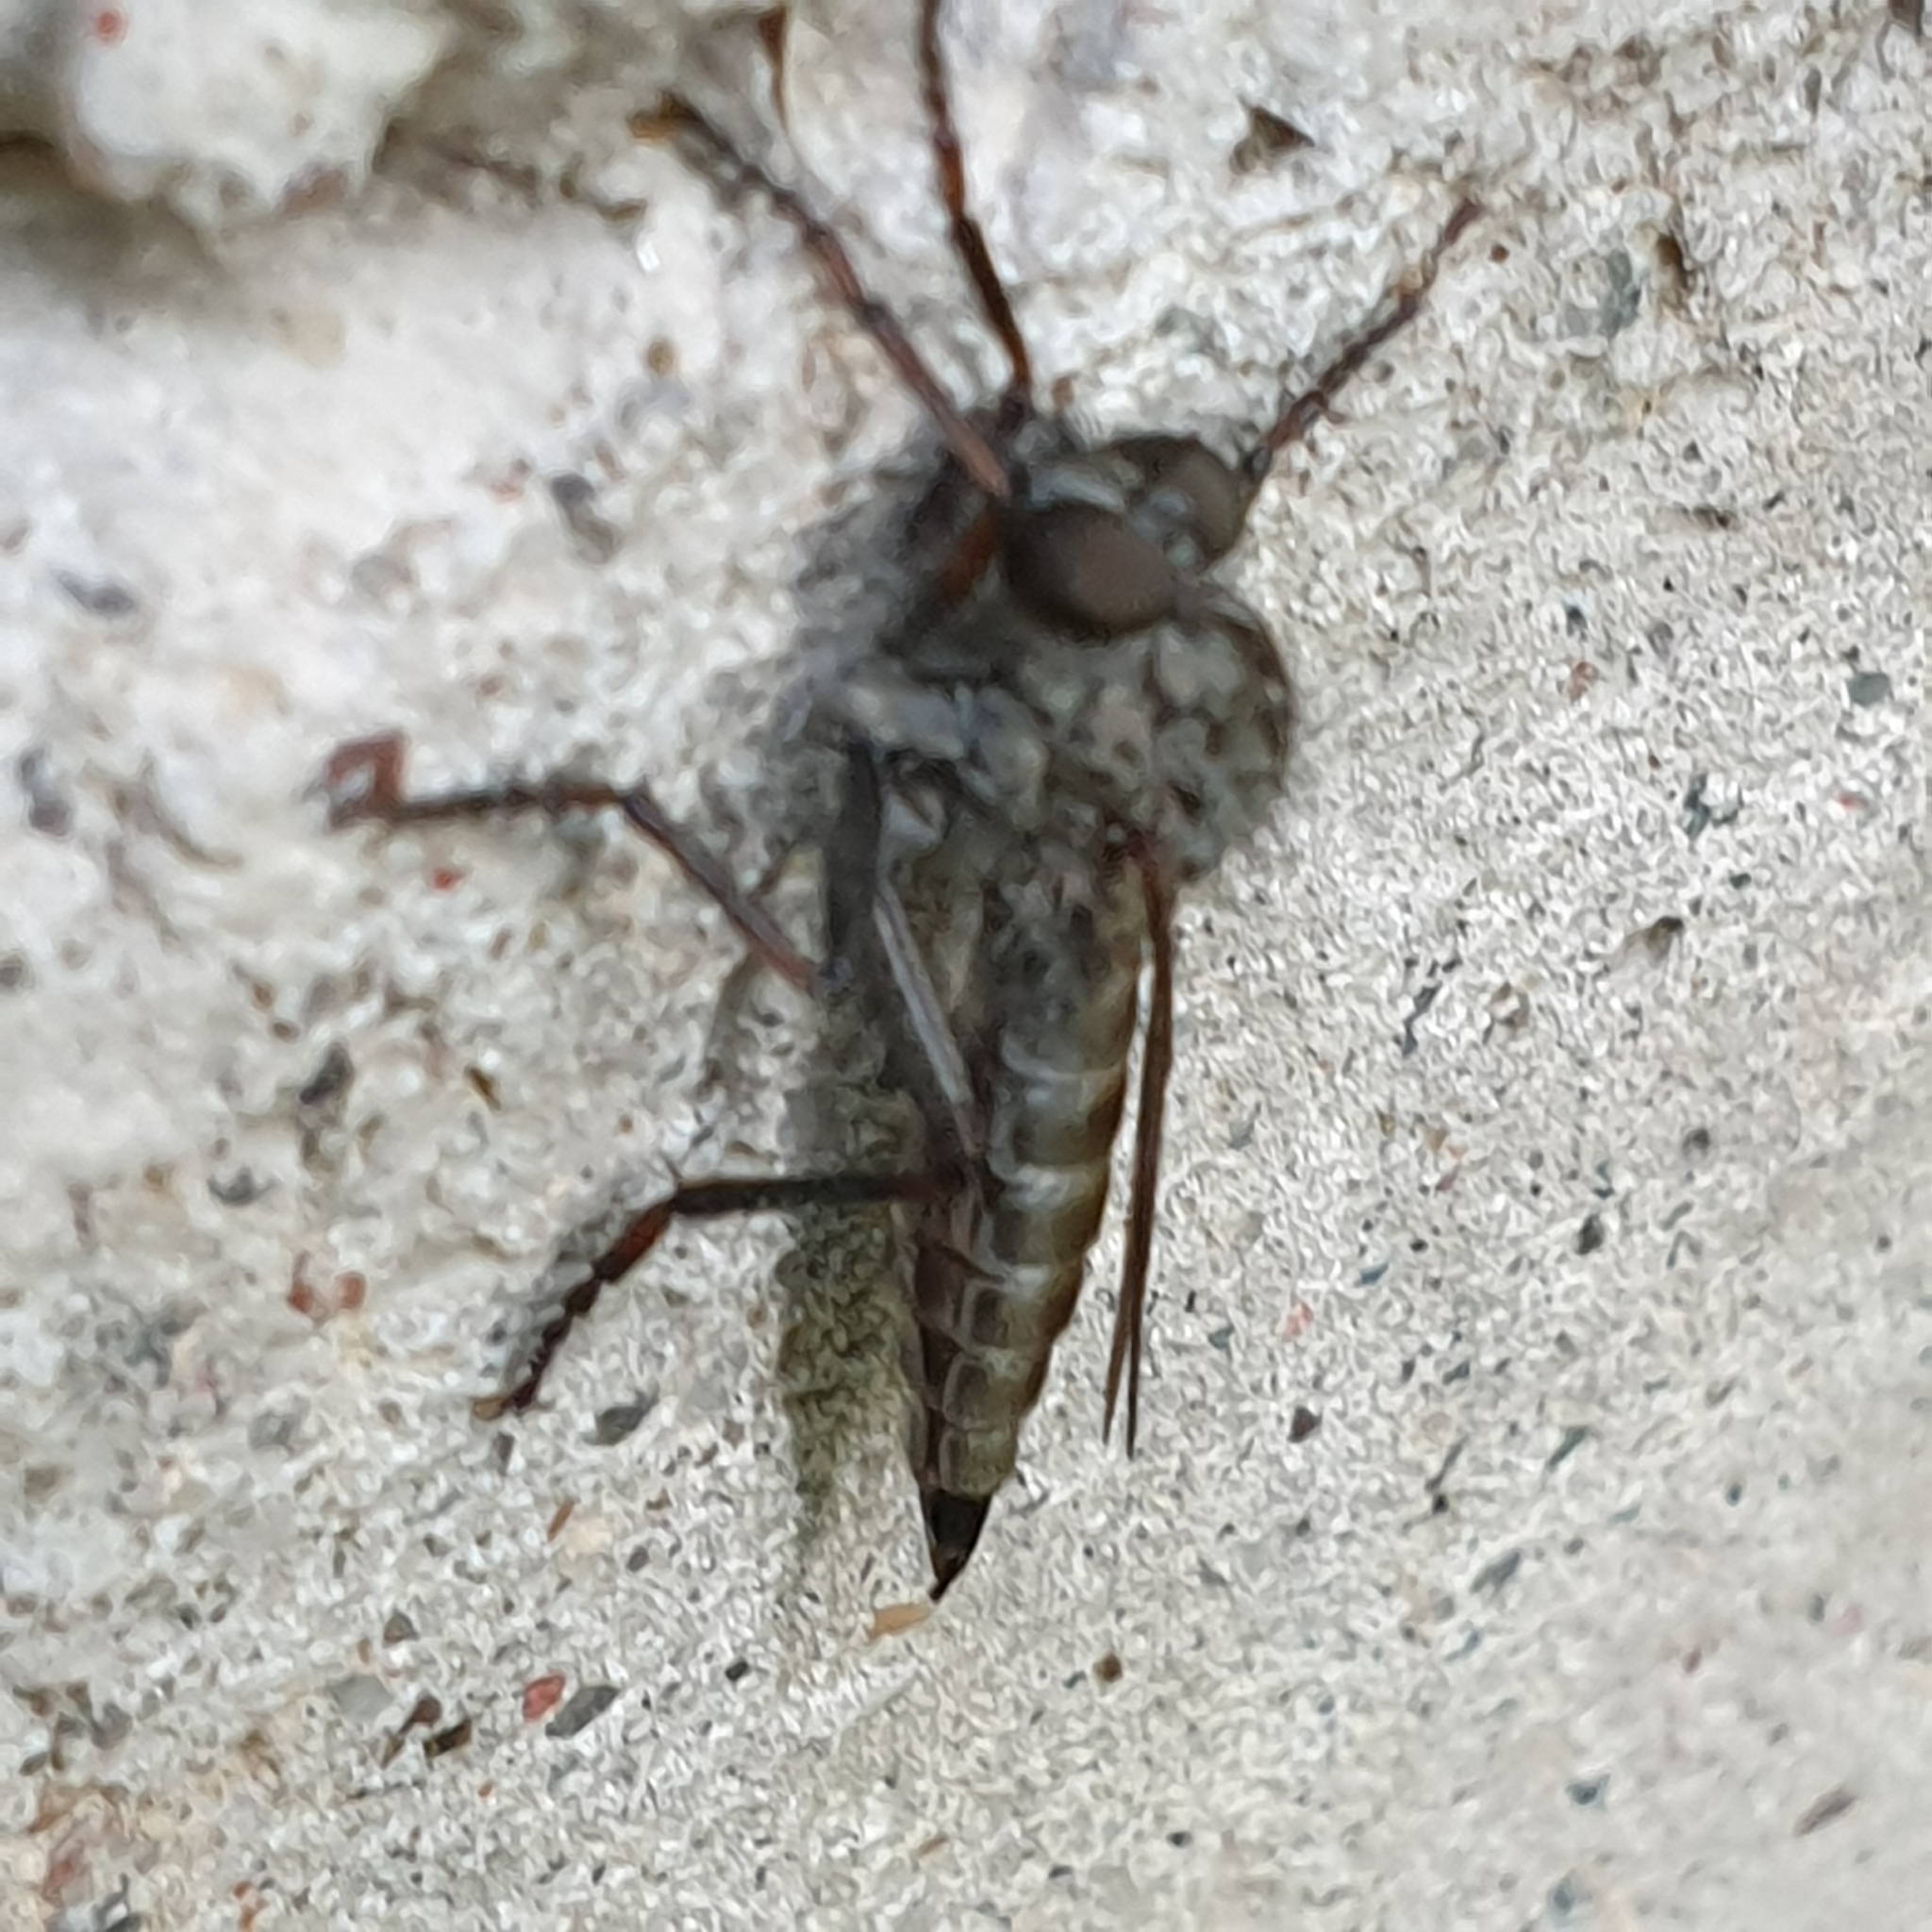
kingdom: Animalia
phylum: Arthropoda
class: Insecta
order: Diptera
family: Asilidae
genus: Machimus
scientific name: Machimus atricapillus
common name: Kite-tailed robberfly
